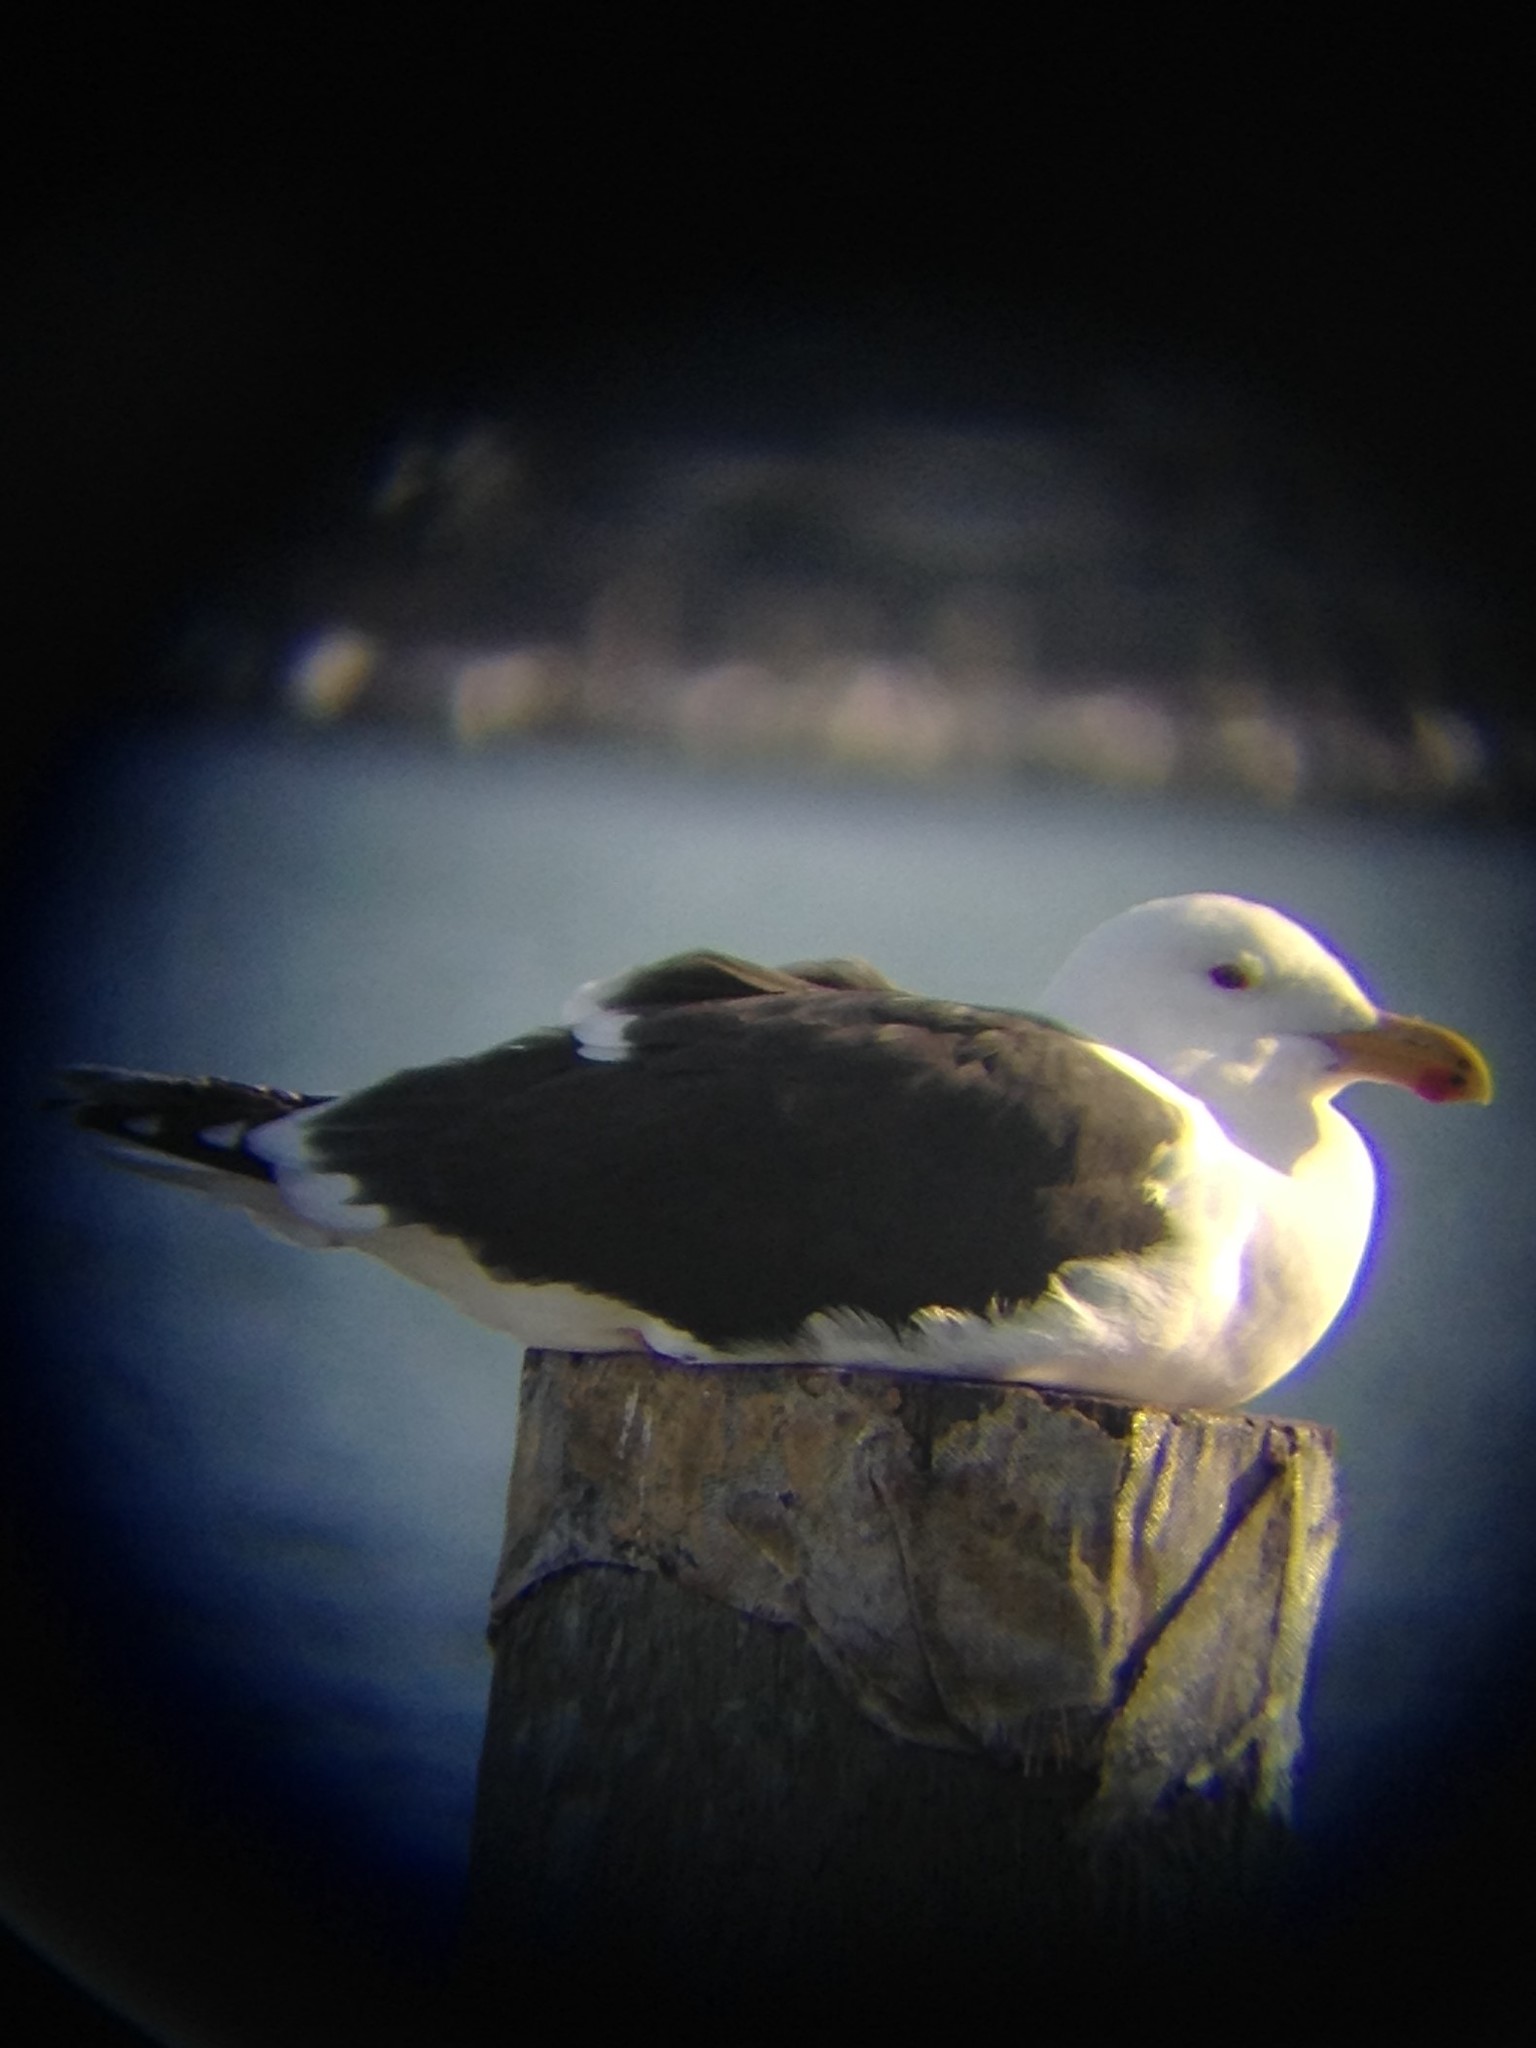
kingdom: Animalia
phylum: Chordata
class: Aves
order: Charadriiformes
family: Laridae
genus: Larus
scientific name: Larus marinus
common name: Great black-backed gull
